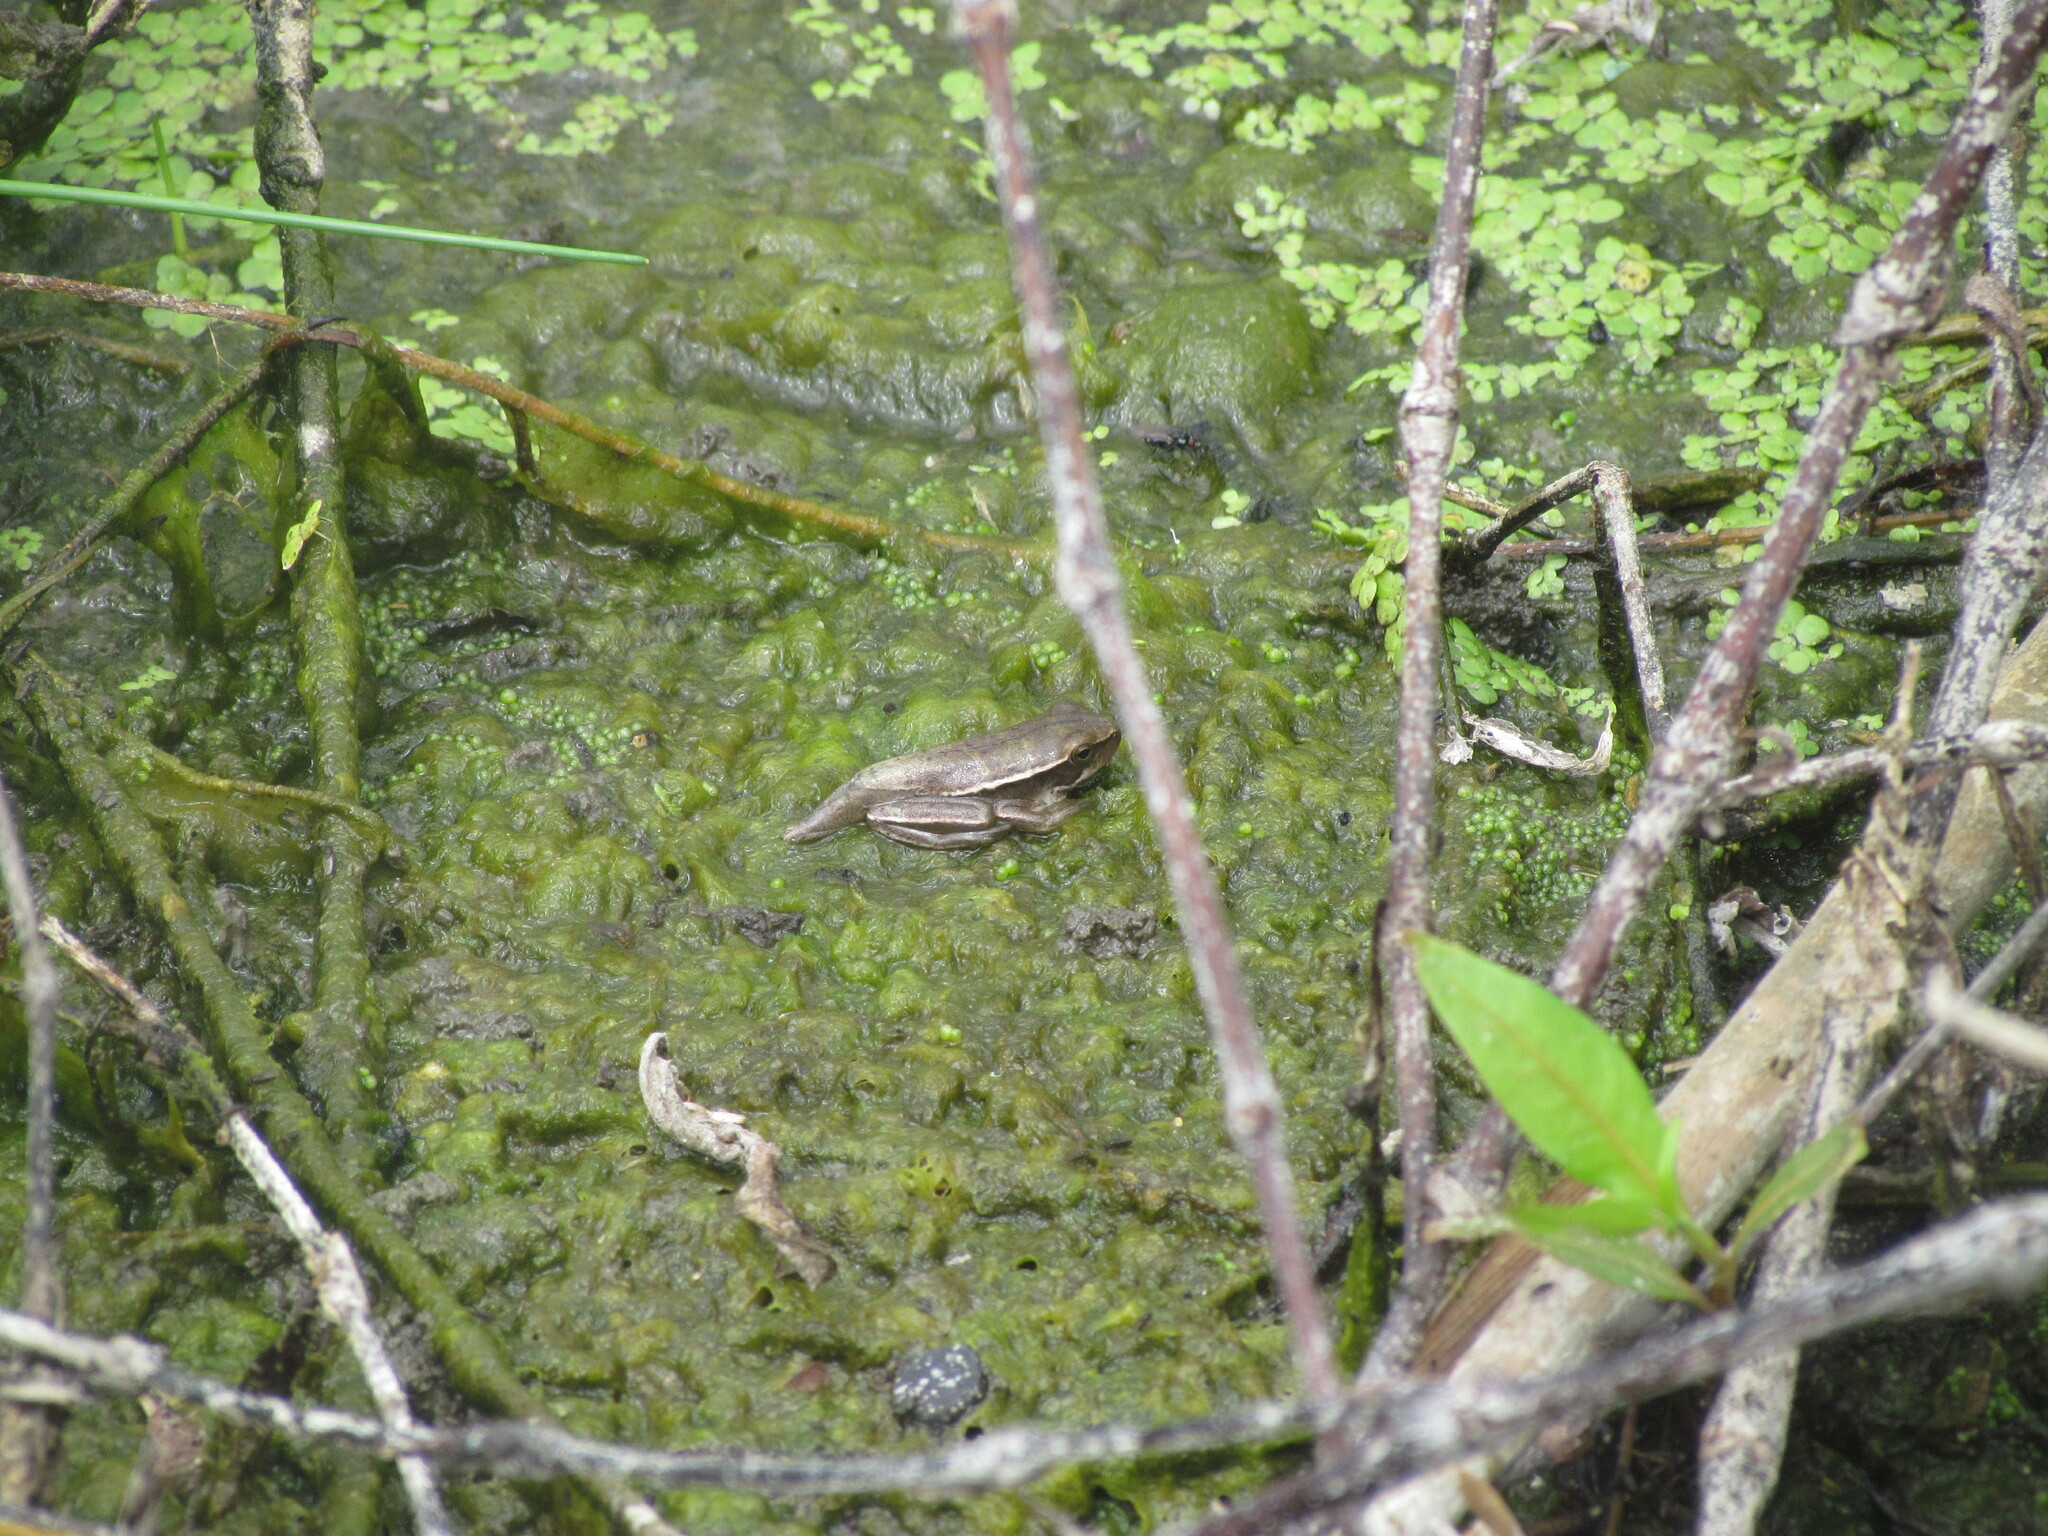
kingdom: Animalia
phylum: Chordata
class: Amphibia
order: Anura
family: Hylidae
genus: Boana
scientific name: Boana pulchella
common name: Montevideo treefrog
